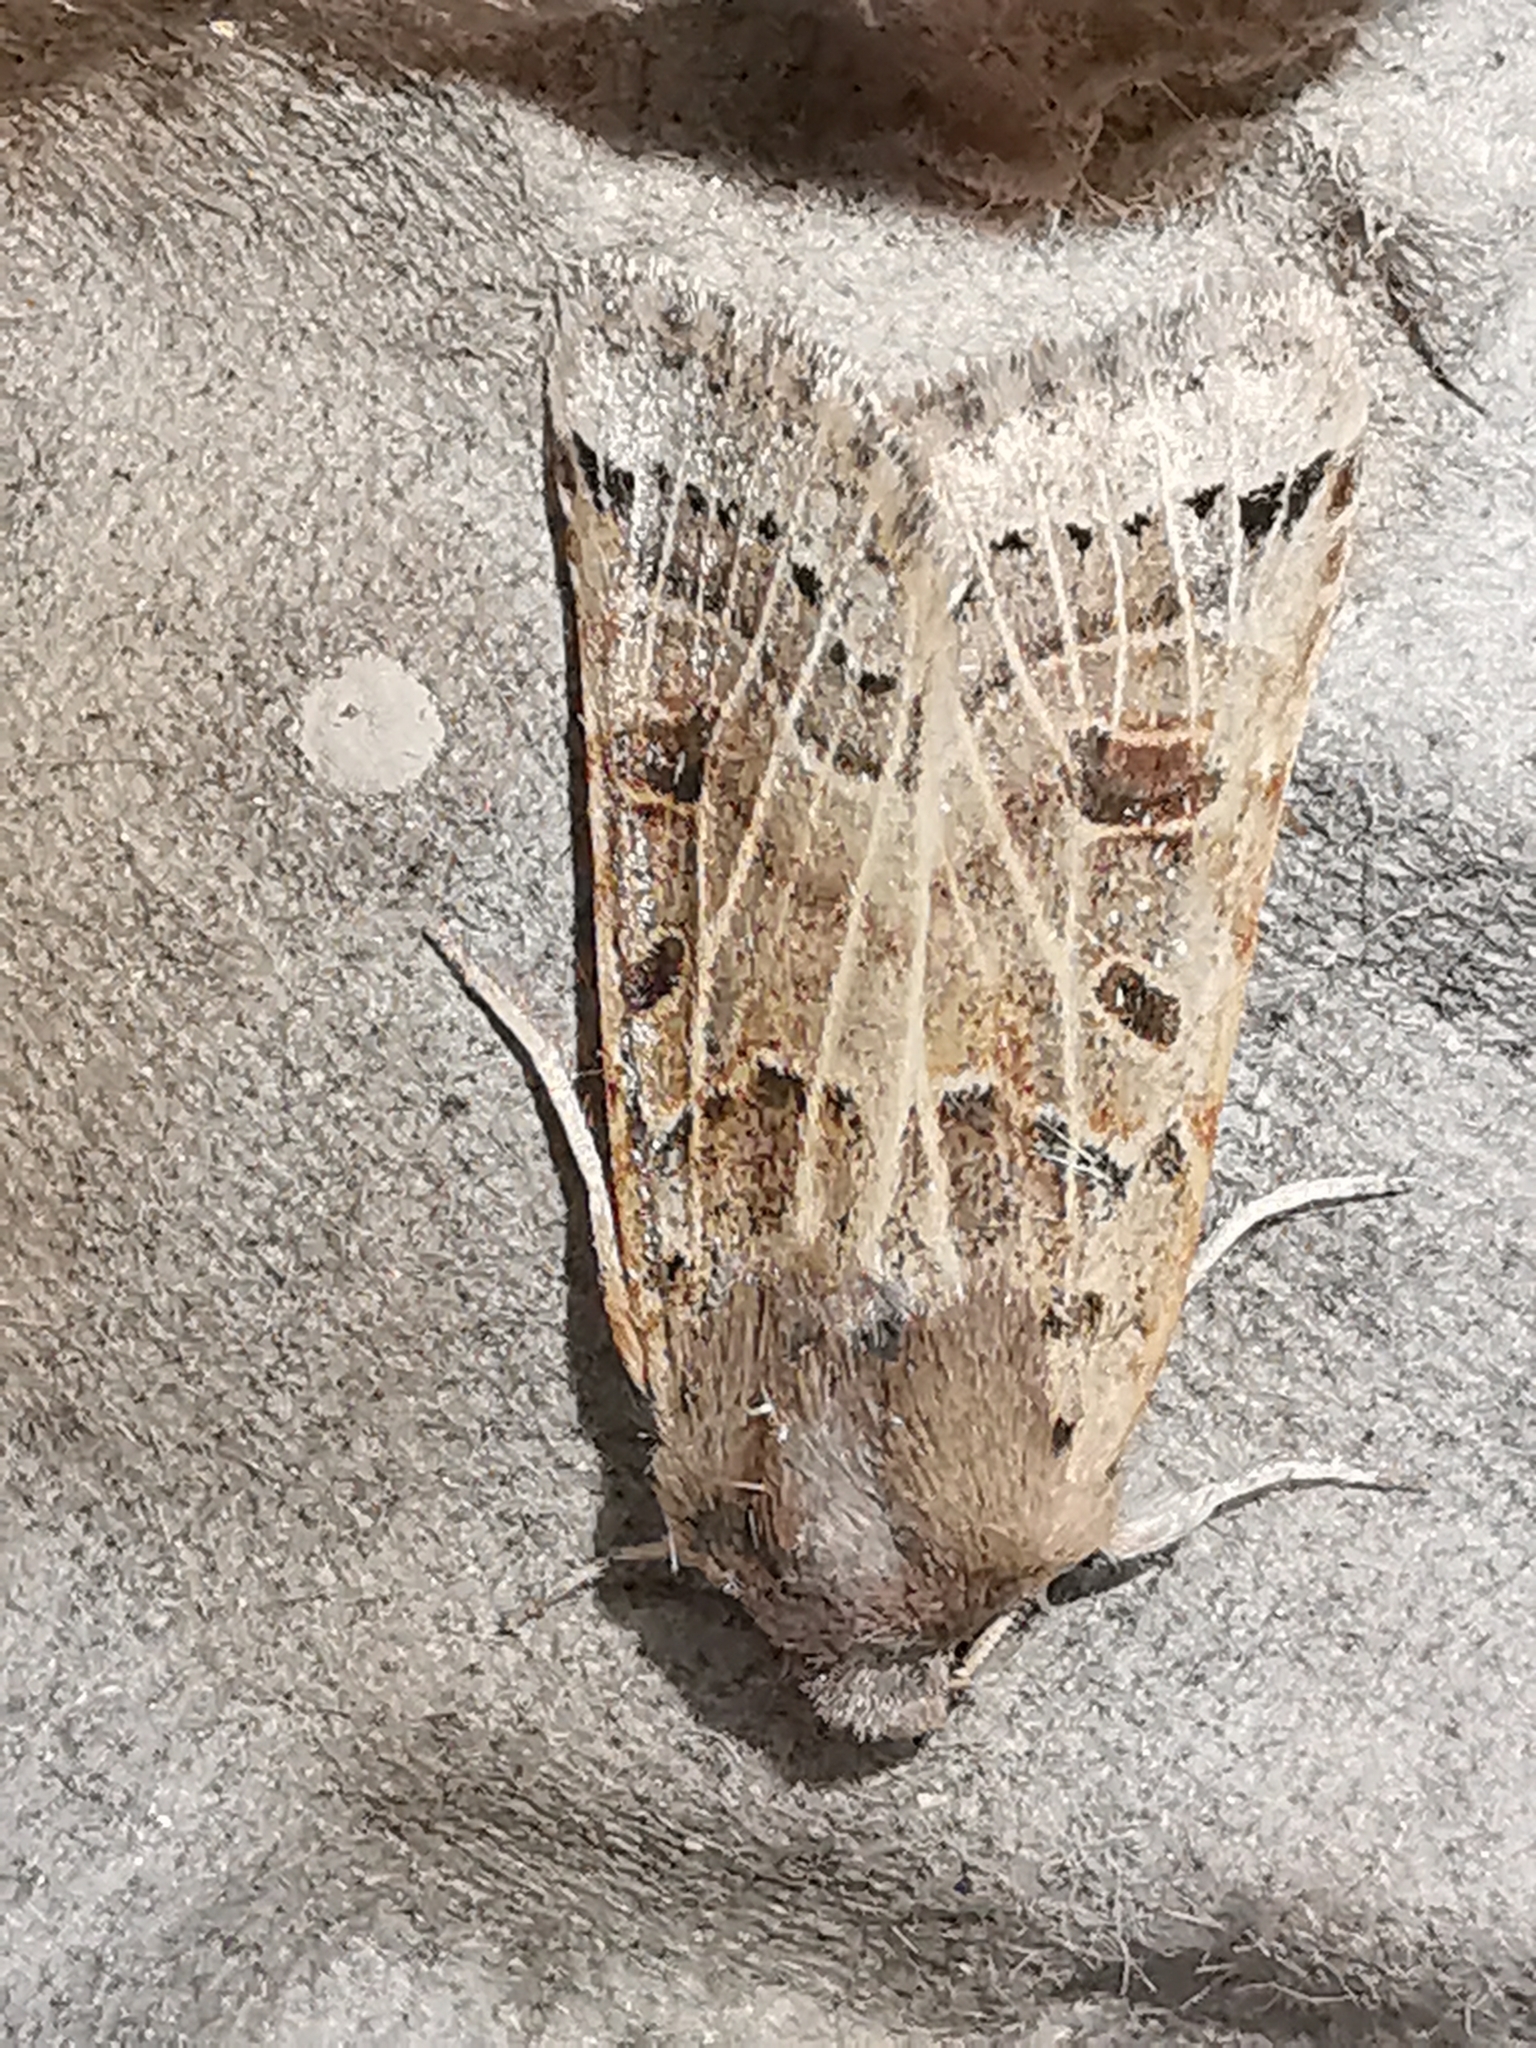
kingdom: Animalia
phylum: Arthropoda
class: Insecta
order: Lepidoptera
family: Noctuidae
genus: Agrochola
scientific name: Agrochola lunosa
